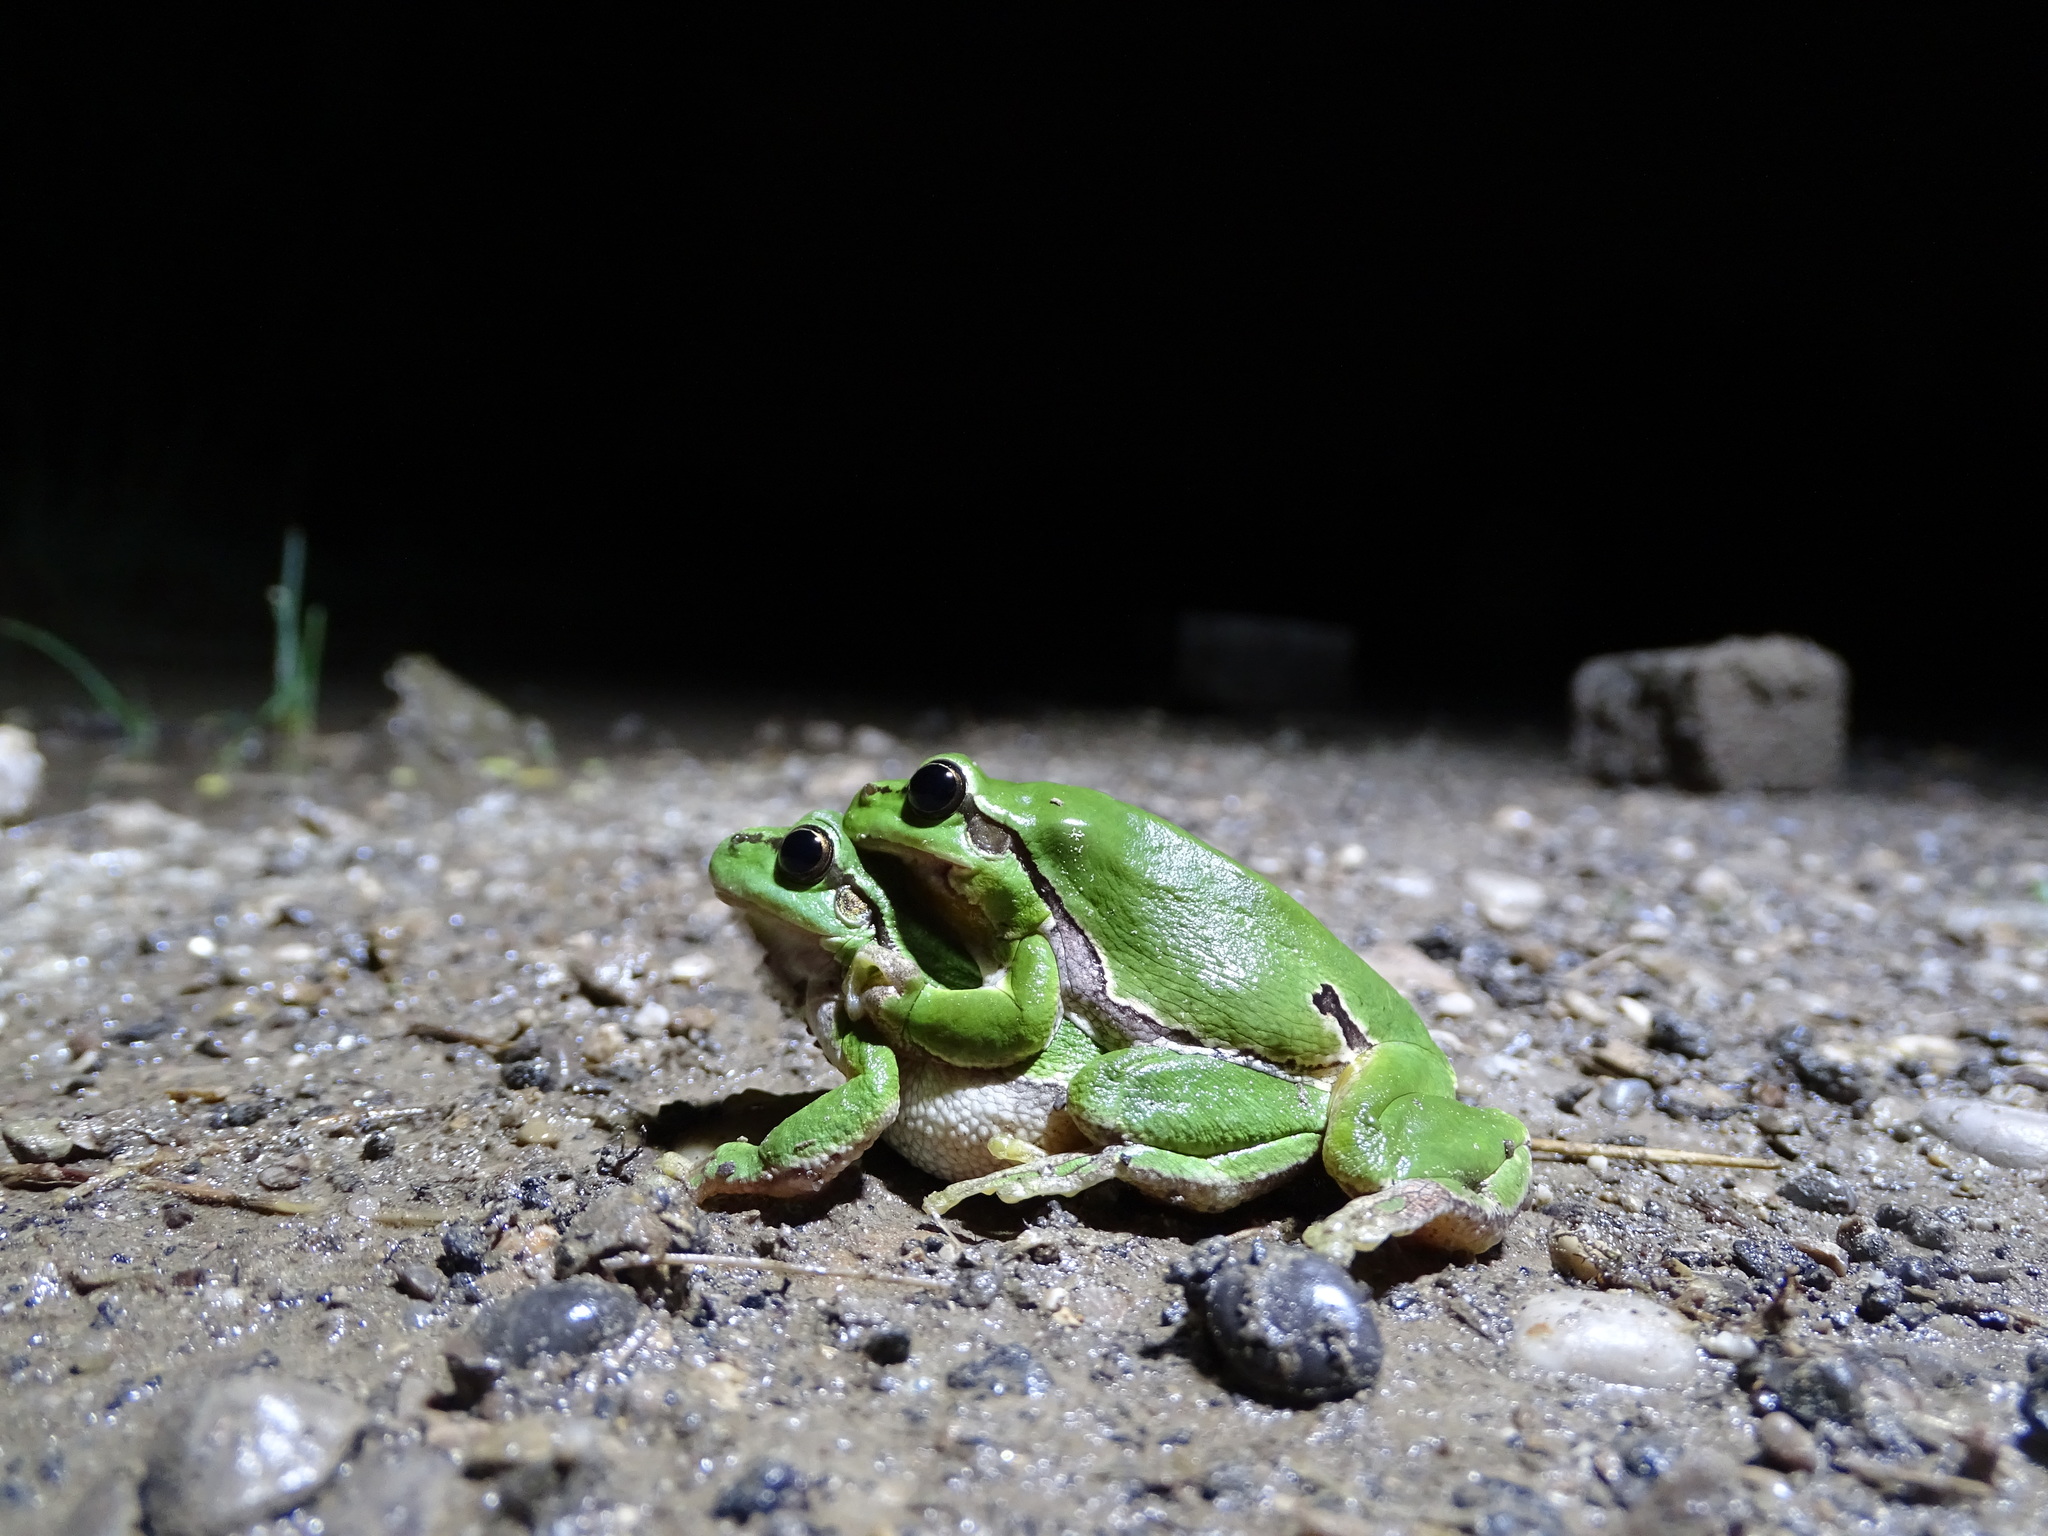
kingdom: Animalia
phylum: Chordata
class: Amphibia
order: Anura
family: Hylidae
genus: Hyla
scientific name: Hyla arborea
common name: Common tree frog
